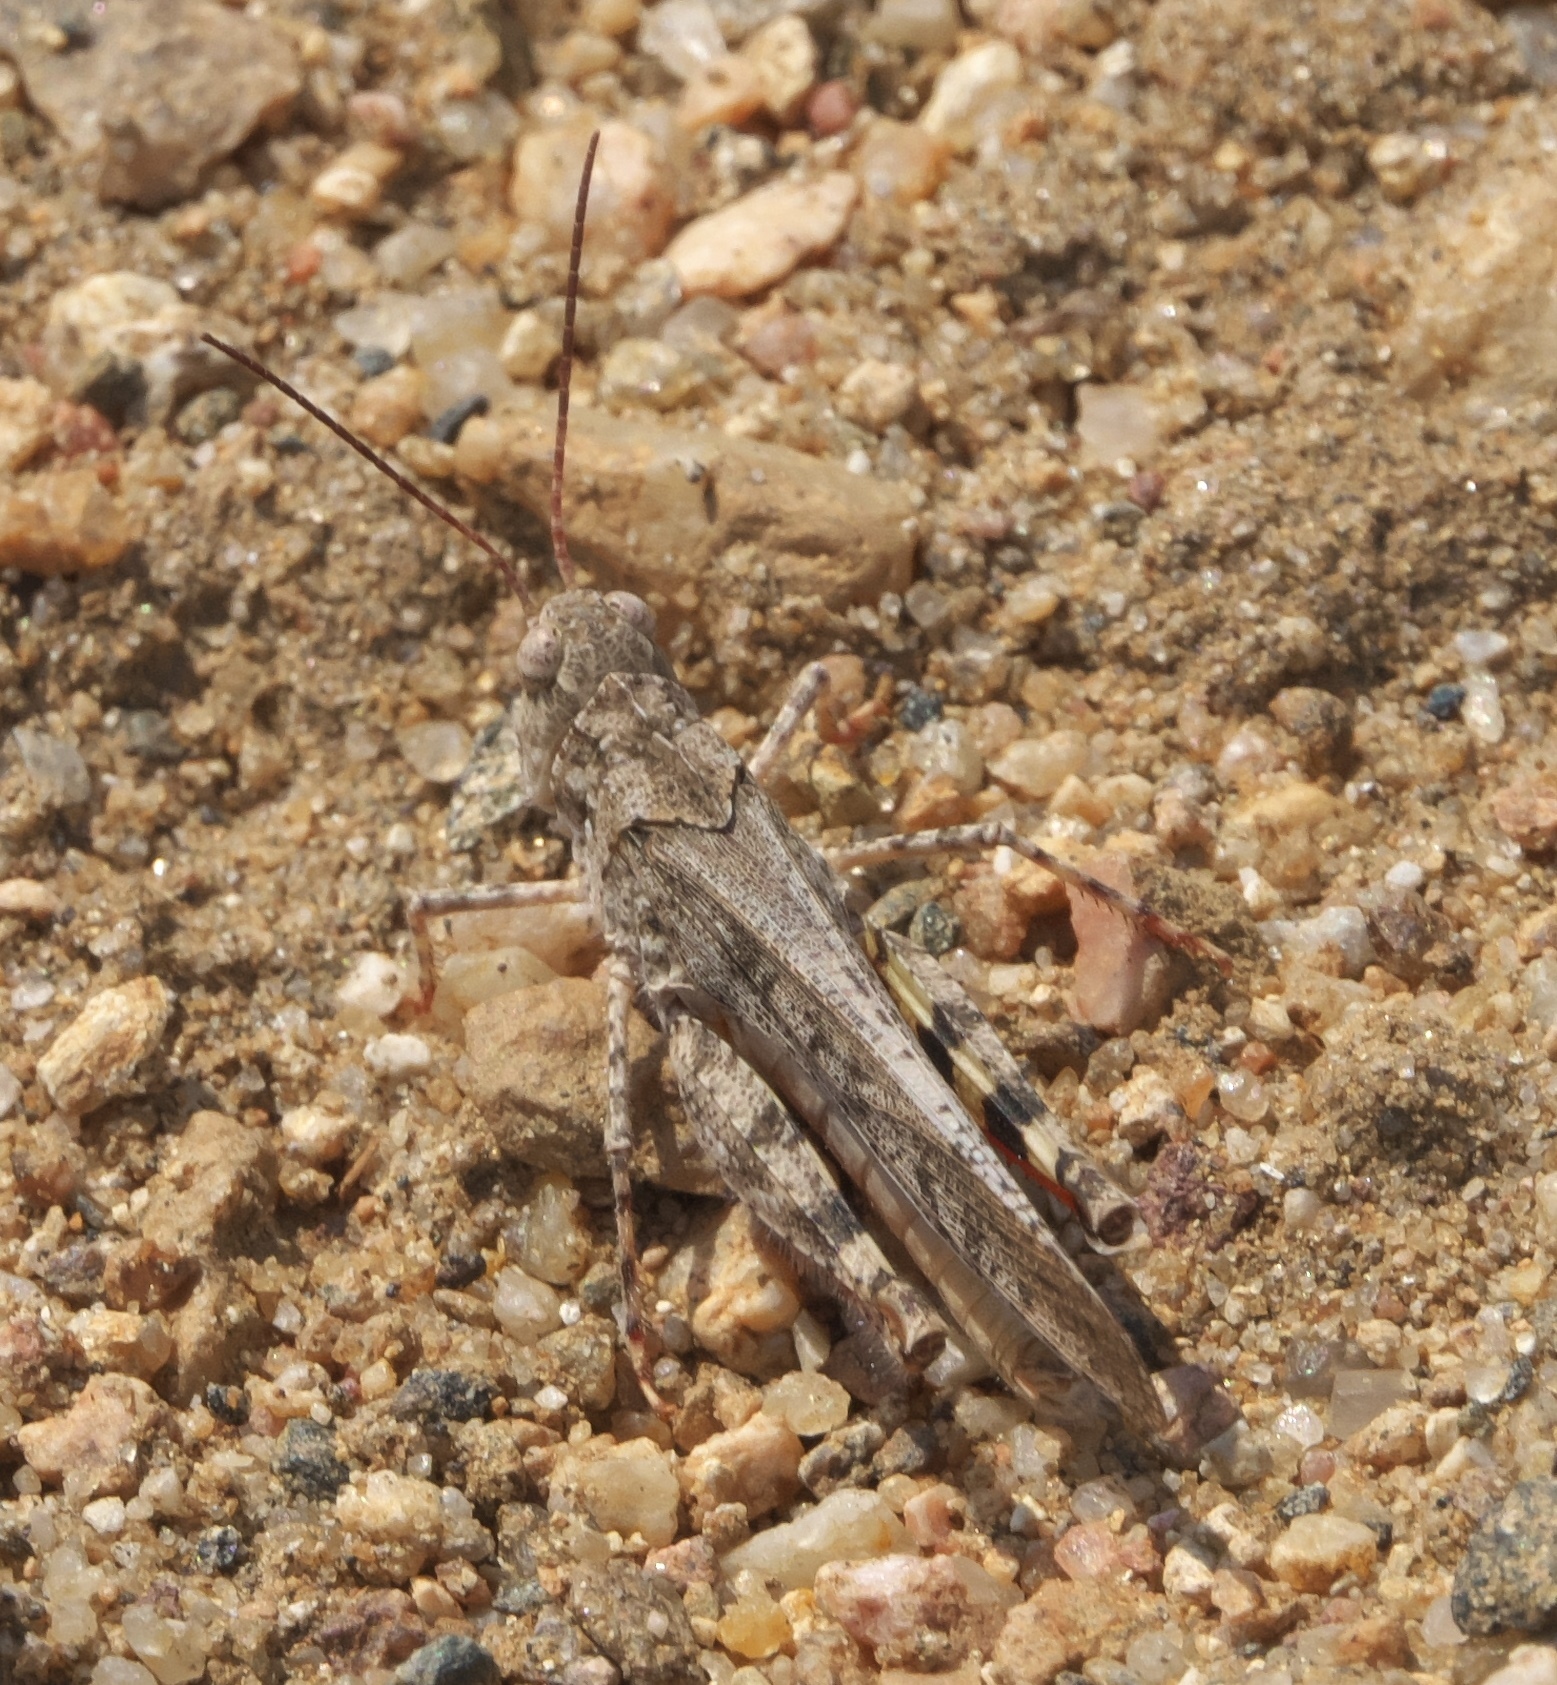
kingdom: Animalia
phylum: Arthropoda
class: Insecta
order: Orthoptera
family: Acrididae
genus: Spharagemon
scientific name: Spharagemon collare
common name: Mottled sand grasshopper
